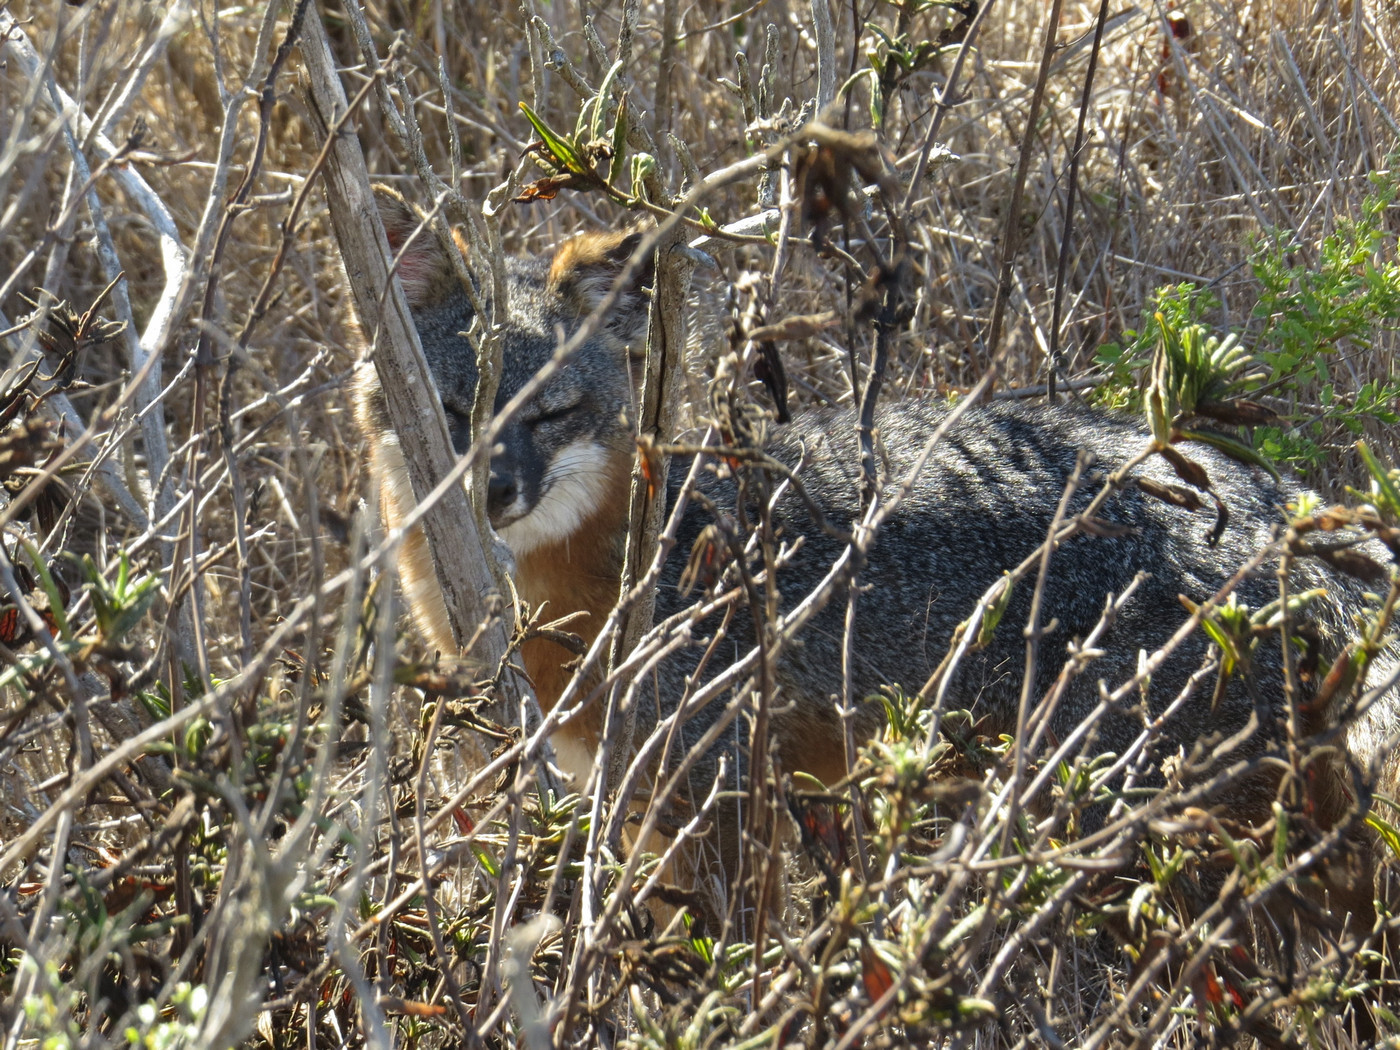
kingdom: Animalia
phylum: Chordata
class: Mammalia
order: Carnivora
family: Canidae
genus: Urocyon
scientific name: Urocyon littoralis
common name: Island gray fox
